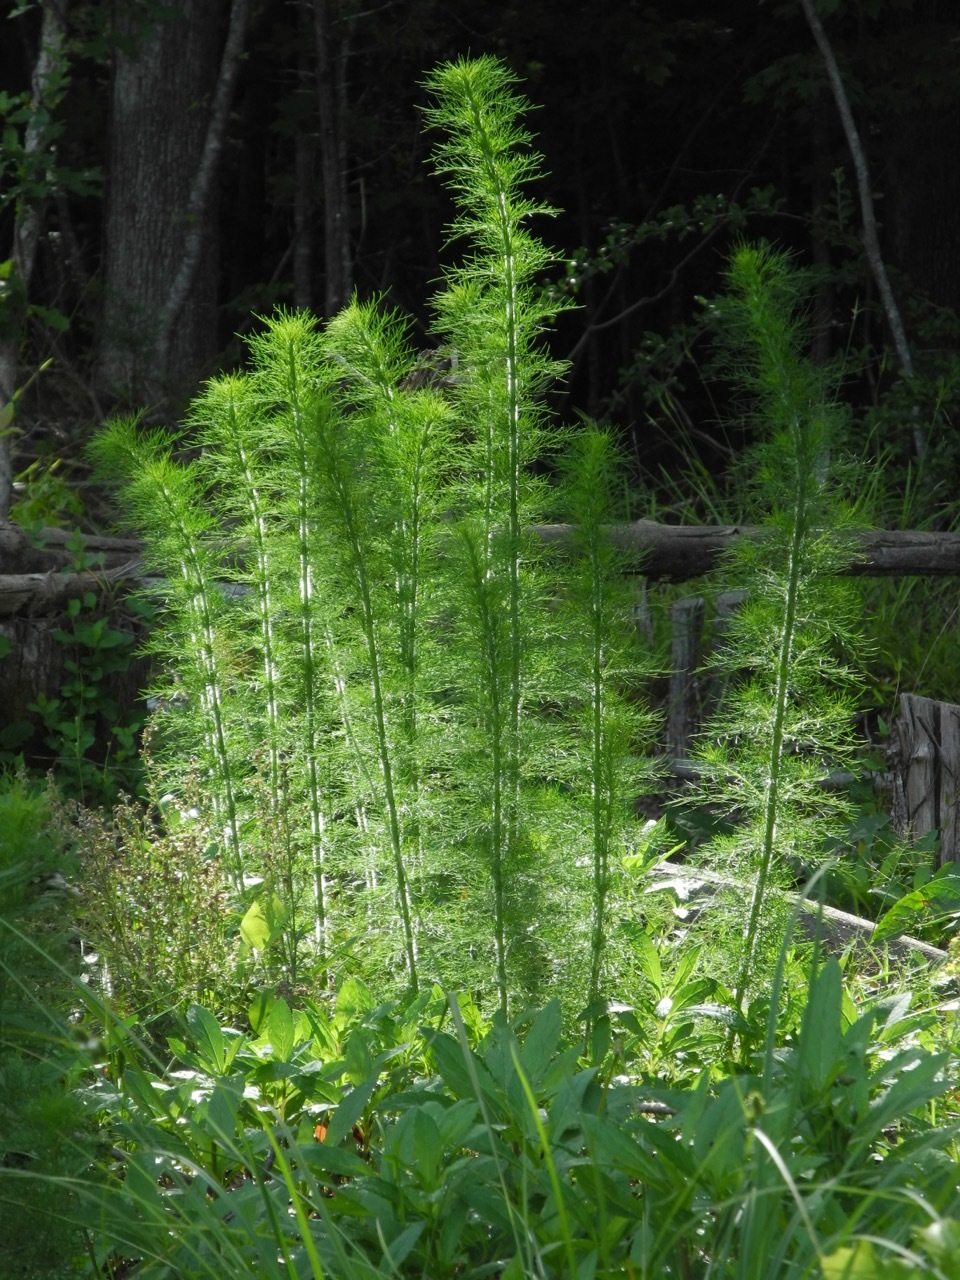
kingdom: Plantae
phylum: Tracheophyta
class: Magnoliopsida
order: Asterales
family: Asteraceae
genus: Eupatorium
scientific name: Eupatorium capillifolium
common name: Dog-fennel
